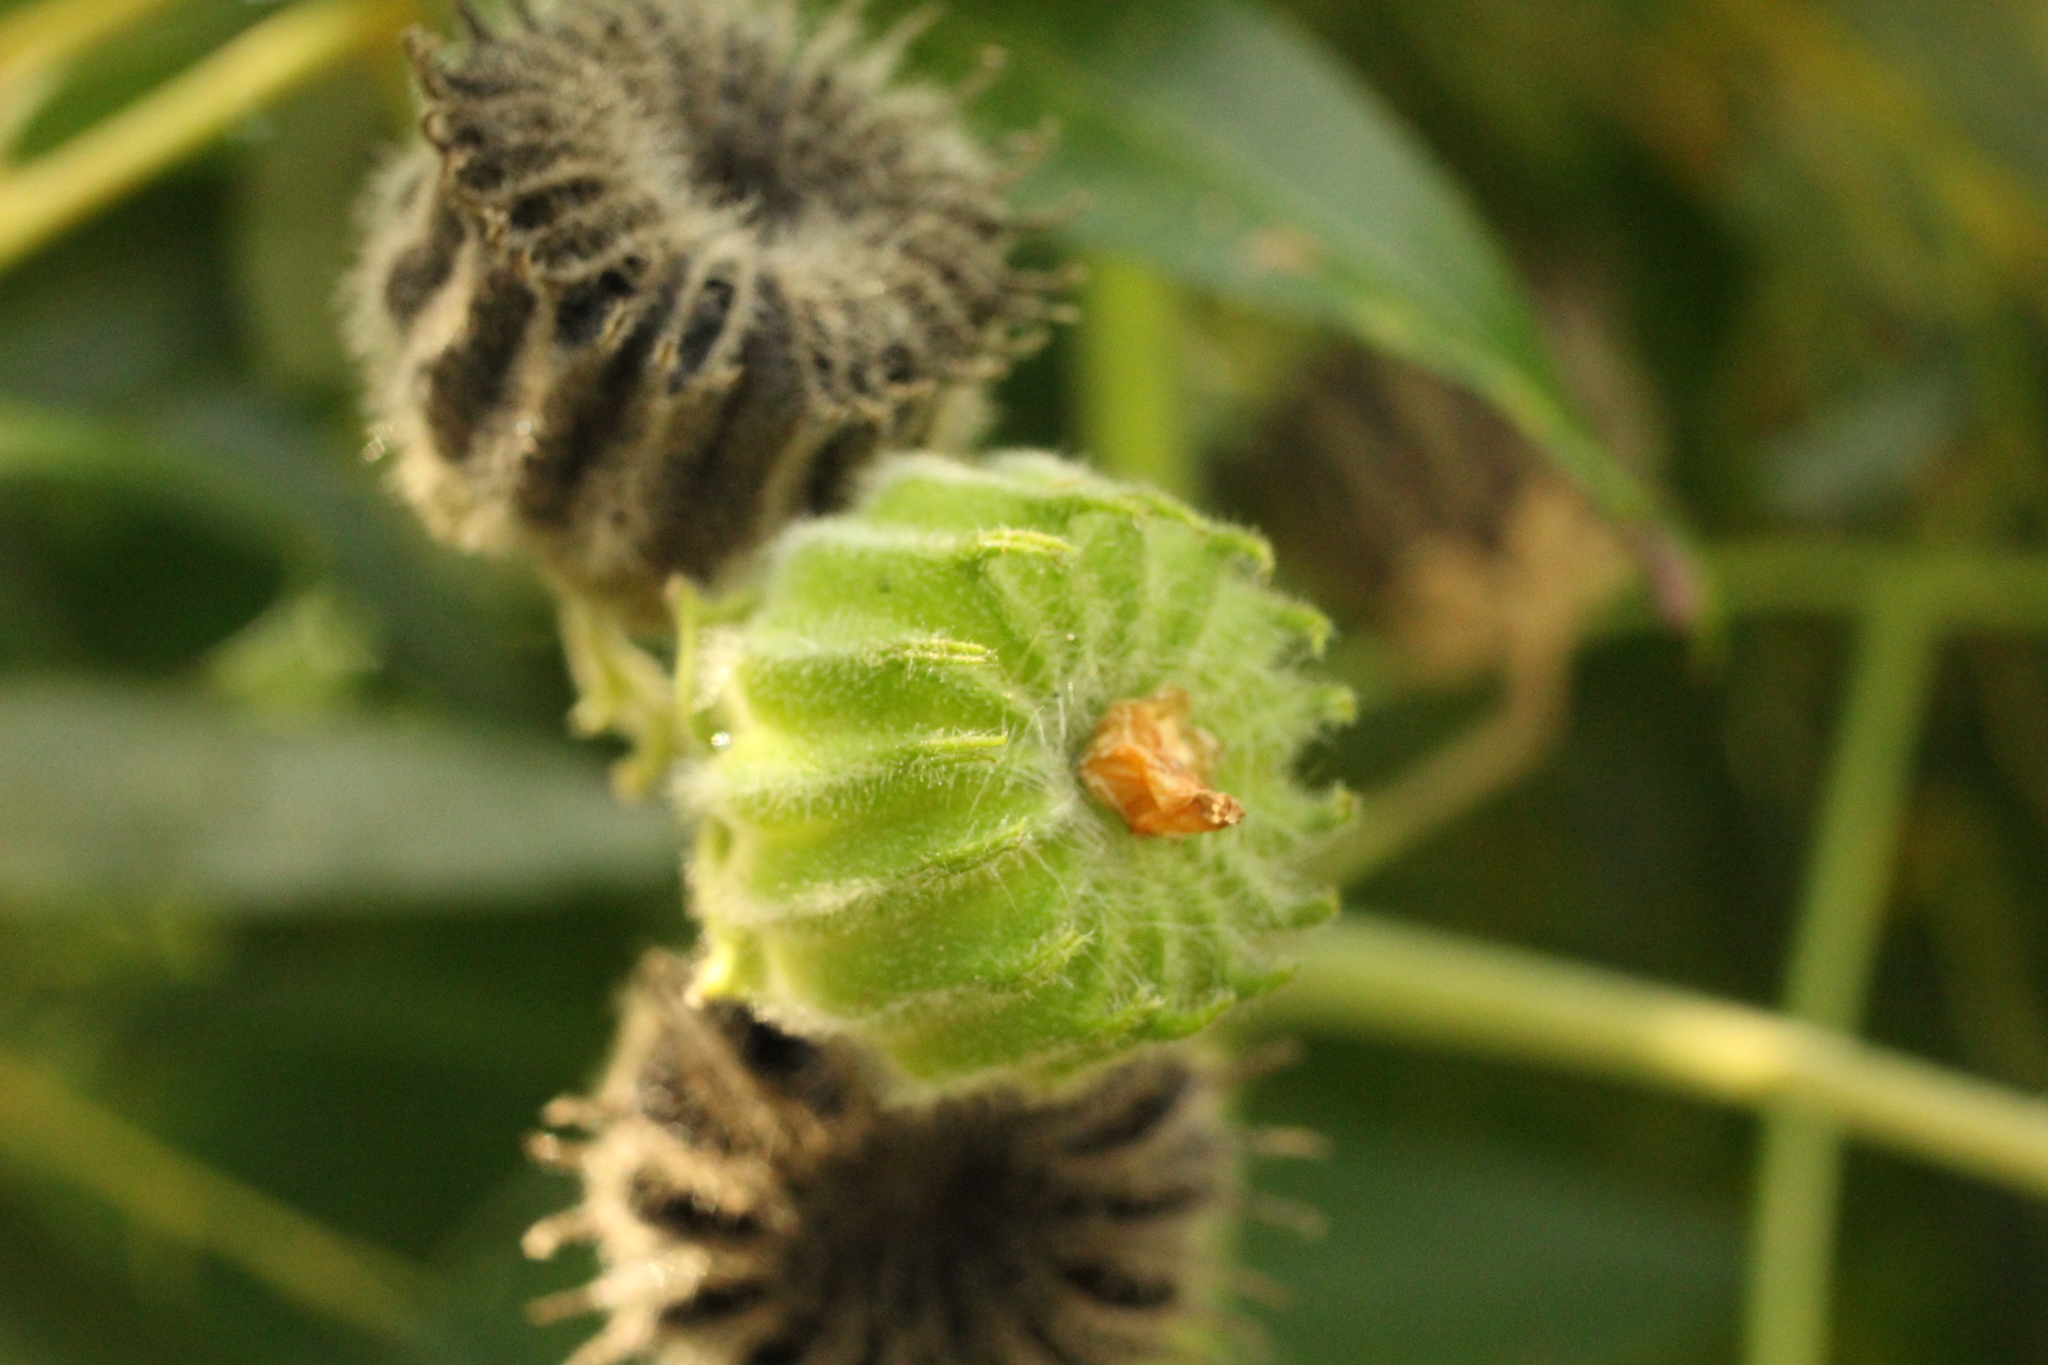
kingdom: Plantae
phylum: Tracheophyta
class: Magnoliopsida
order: Malvales
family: Malvaceae
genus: Abutilon
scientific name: Abutilon theophrasti
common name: Velvetleaf
